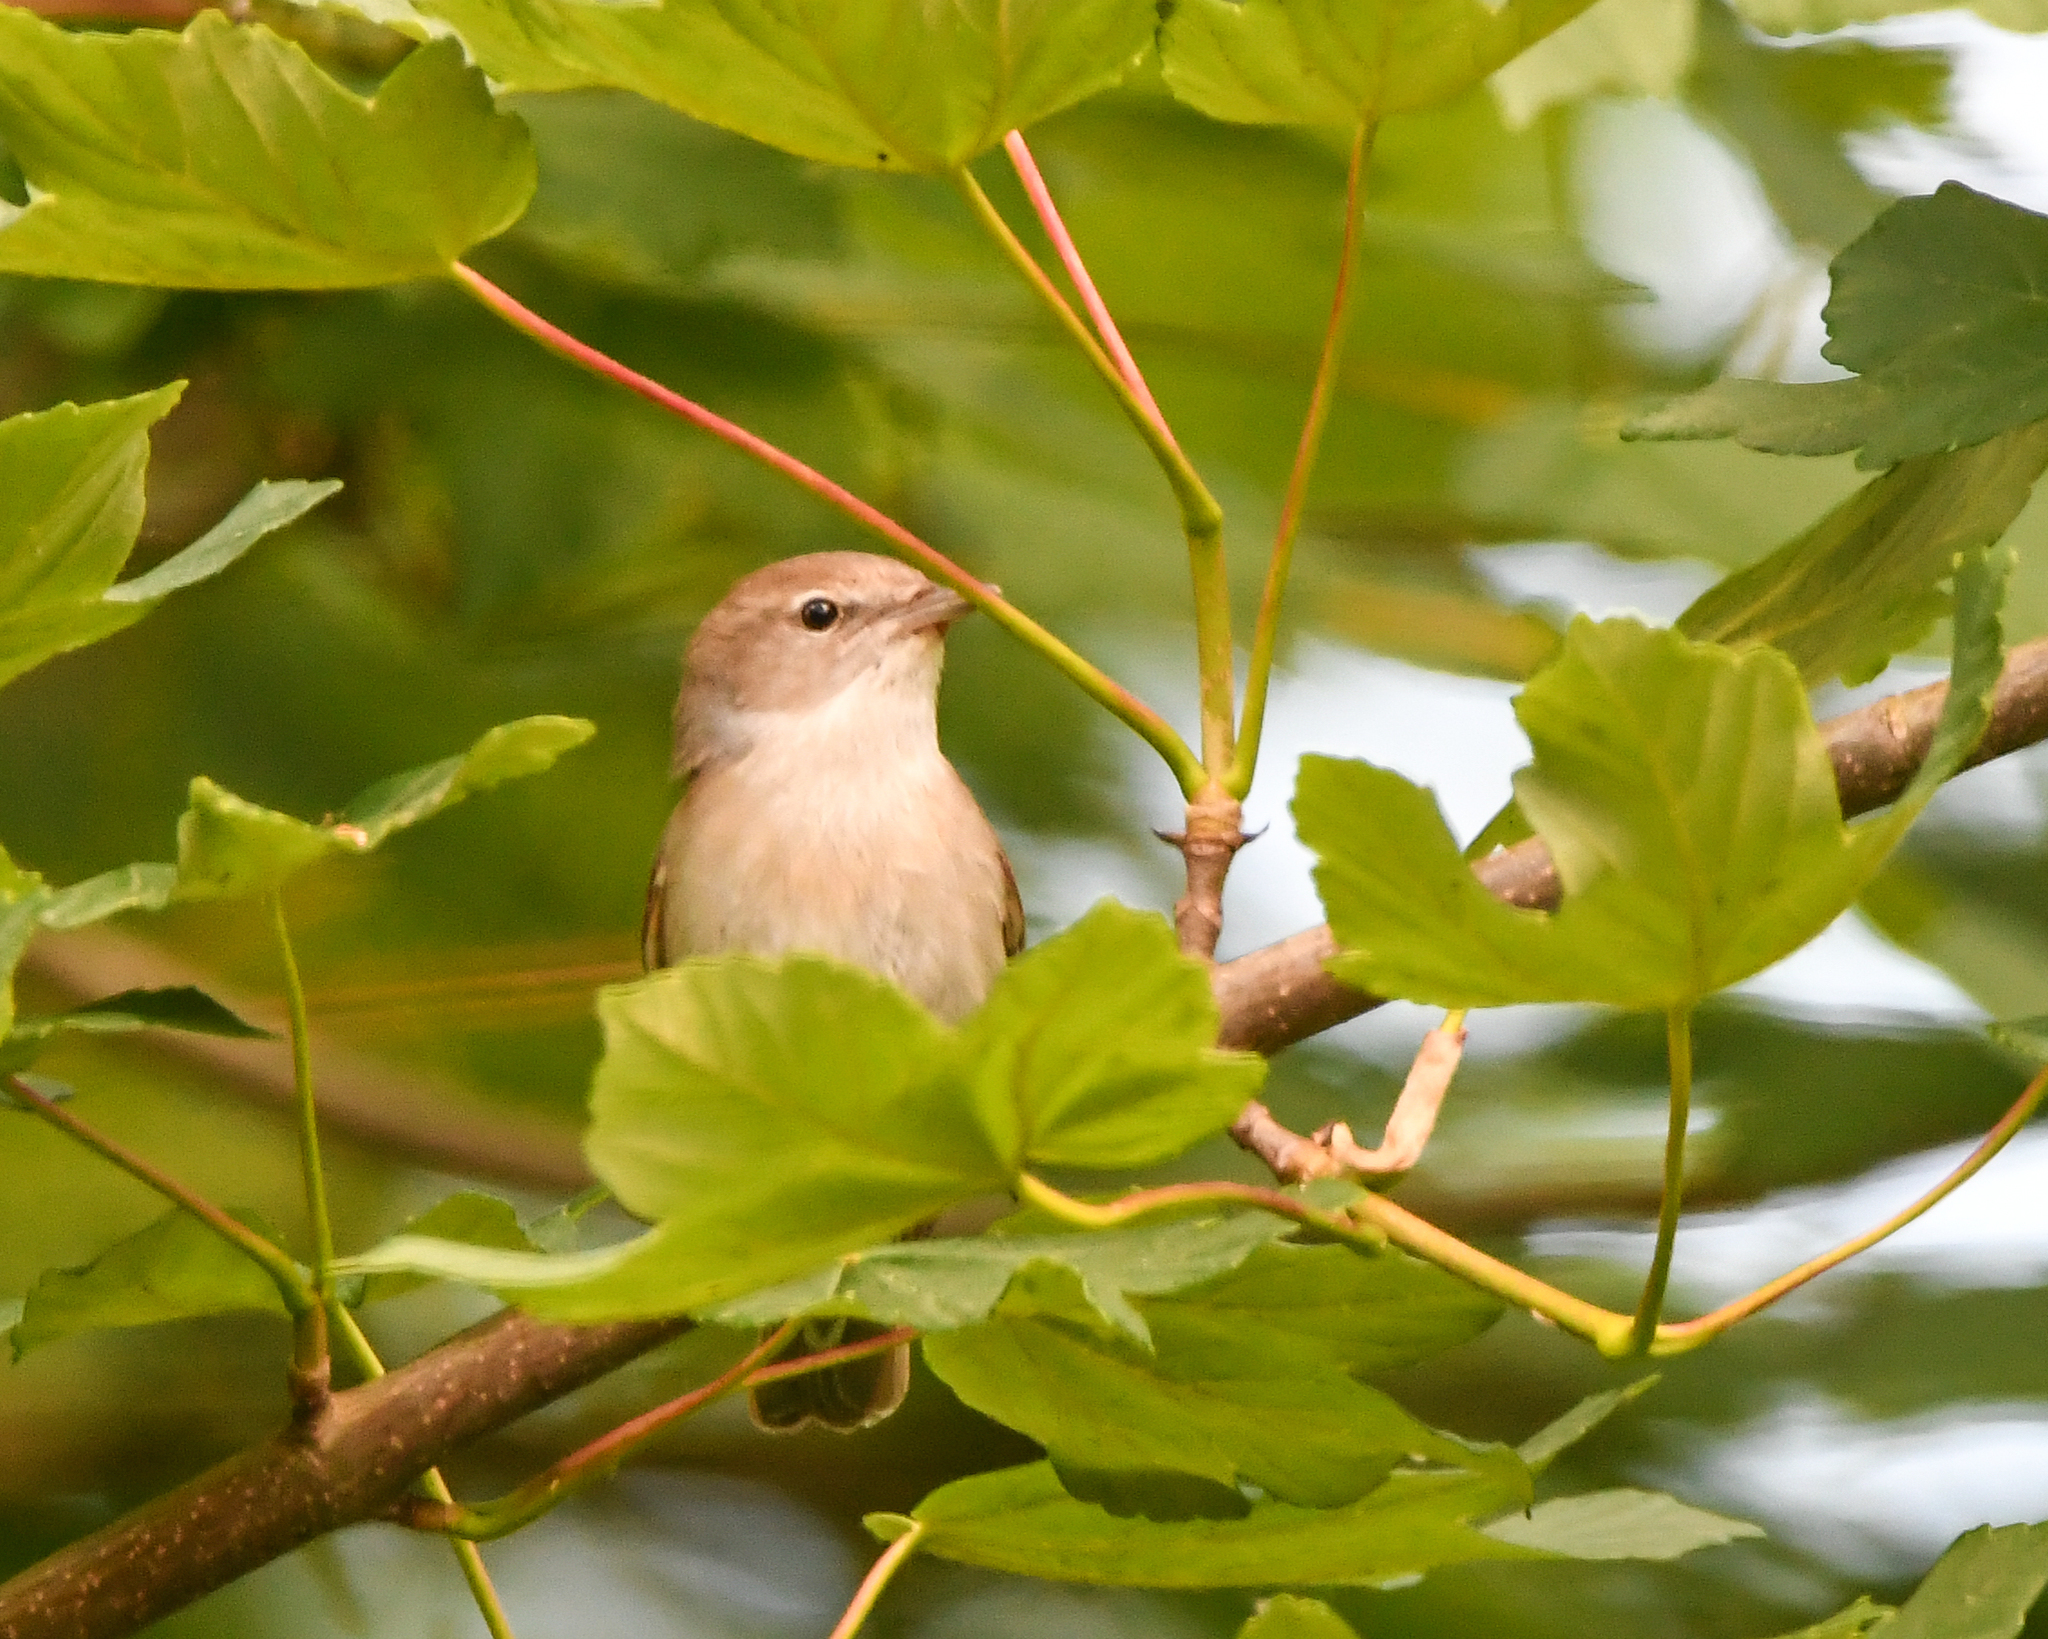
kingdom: Animalia
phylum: Chordata
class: Aves
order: Passeriformes
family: Sylviidae
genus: Sylvia
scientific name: Sylvia borin
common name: Garden warbler
